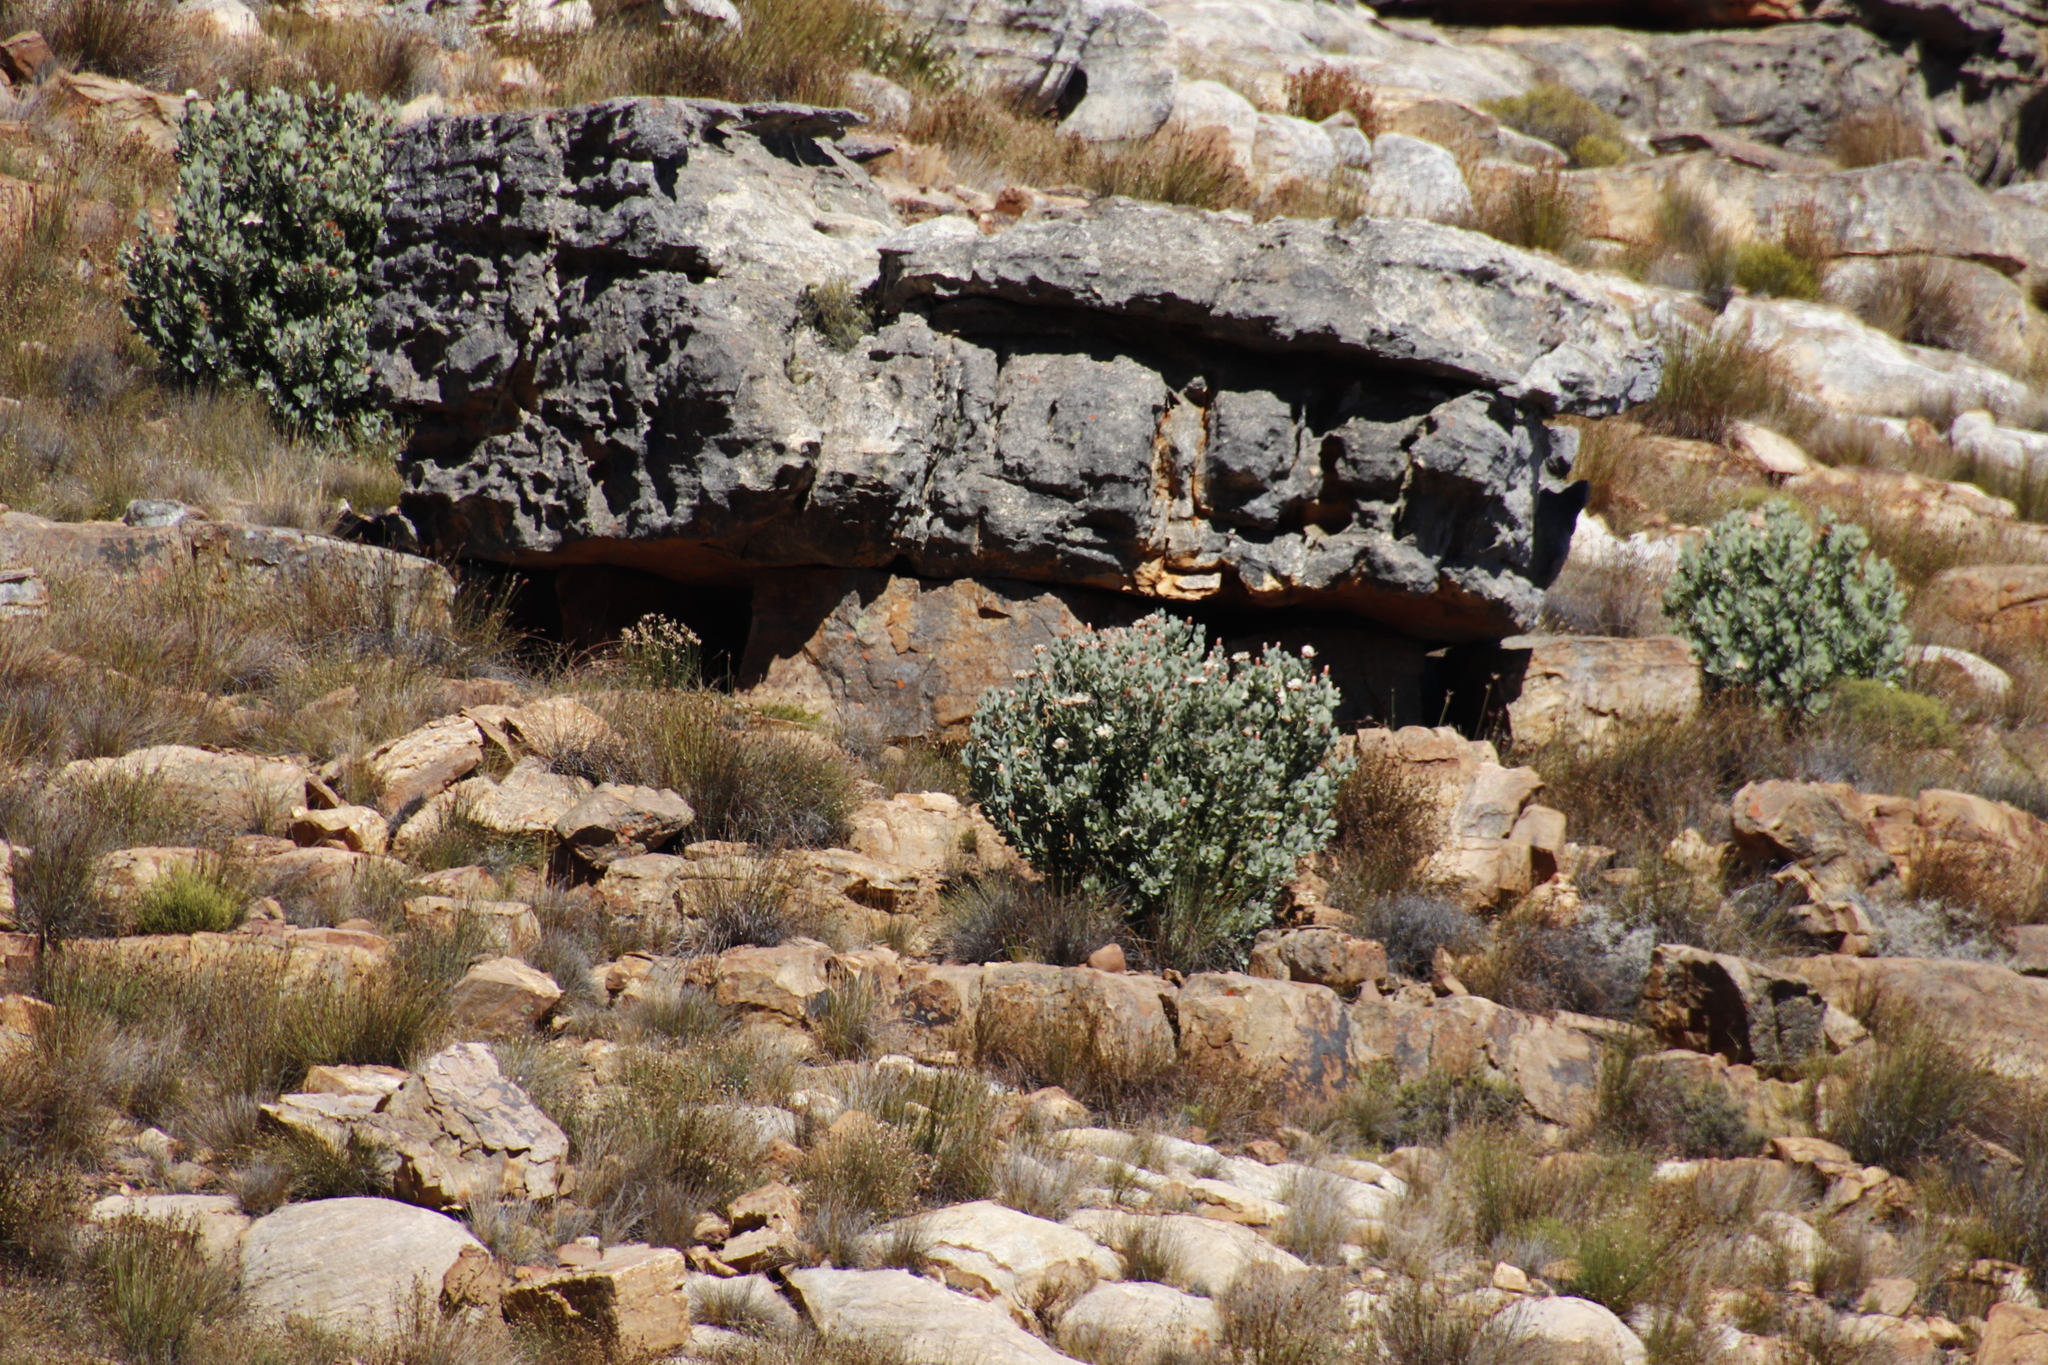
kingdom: Plantae
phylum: Tracheophyta
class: Magnoliopsida
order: Proteales
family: Proteaceae
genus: Protea
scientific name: Protea punctata
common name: Water sugarbush
